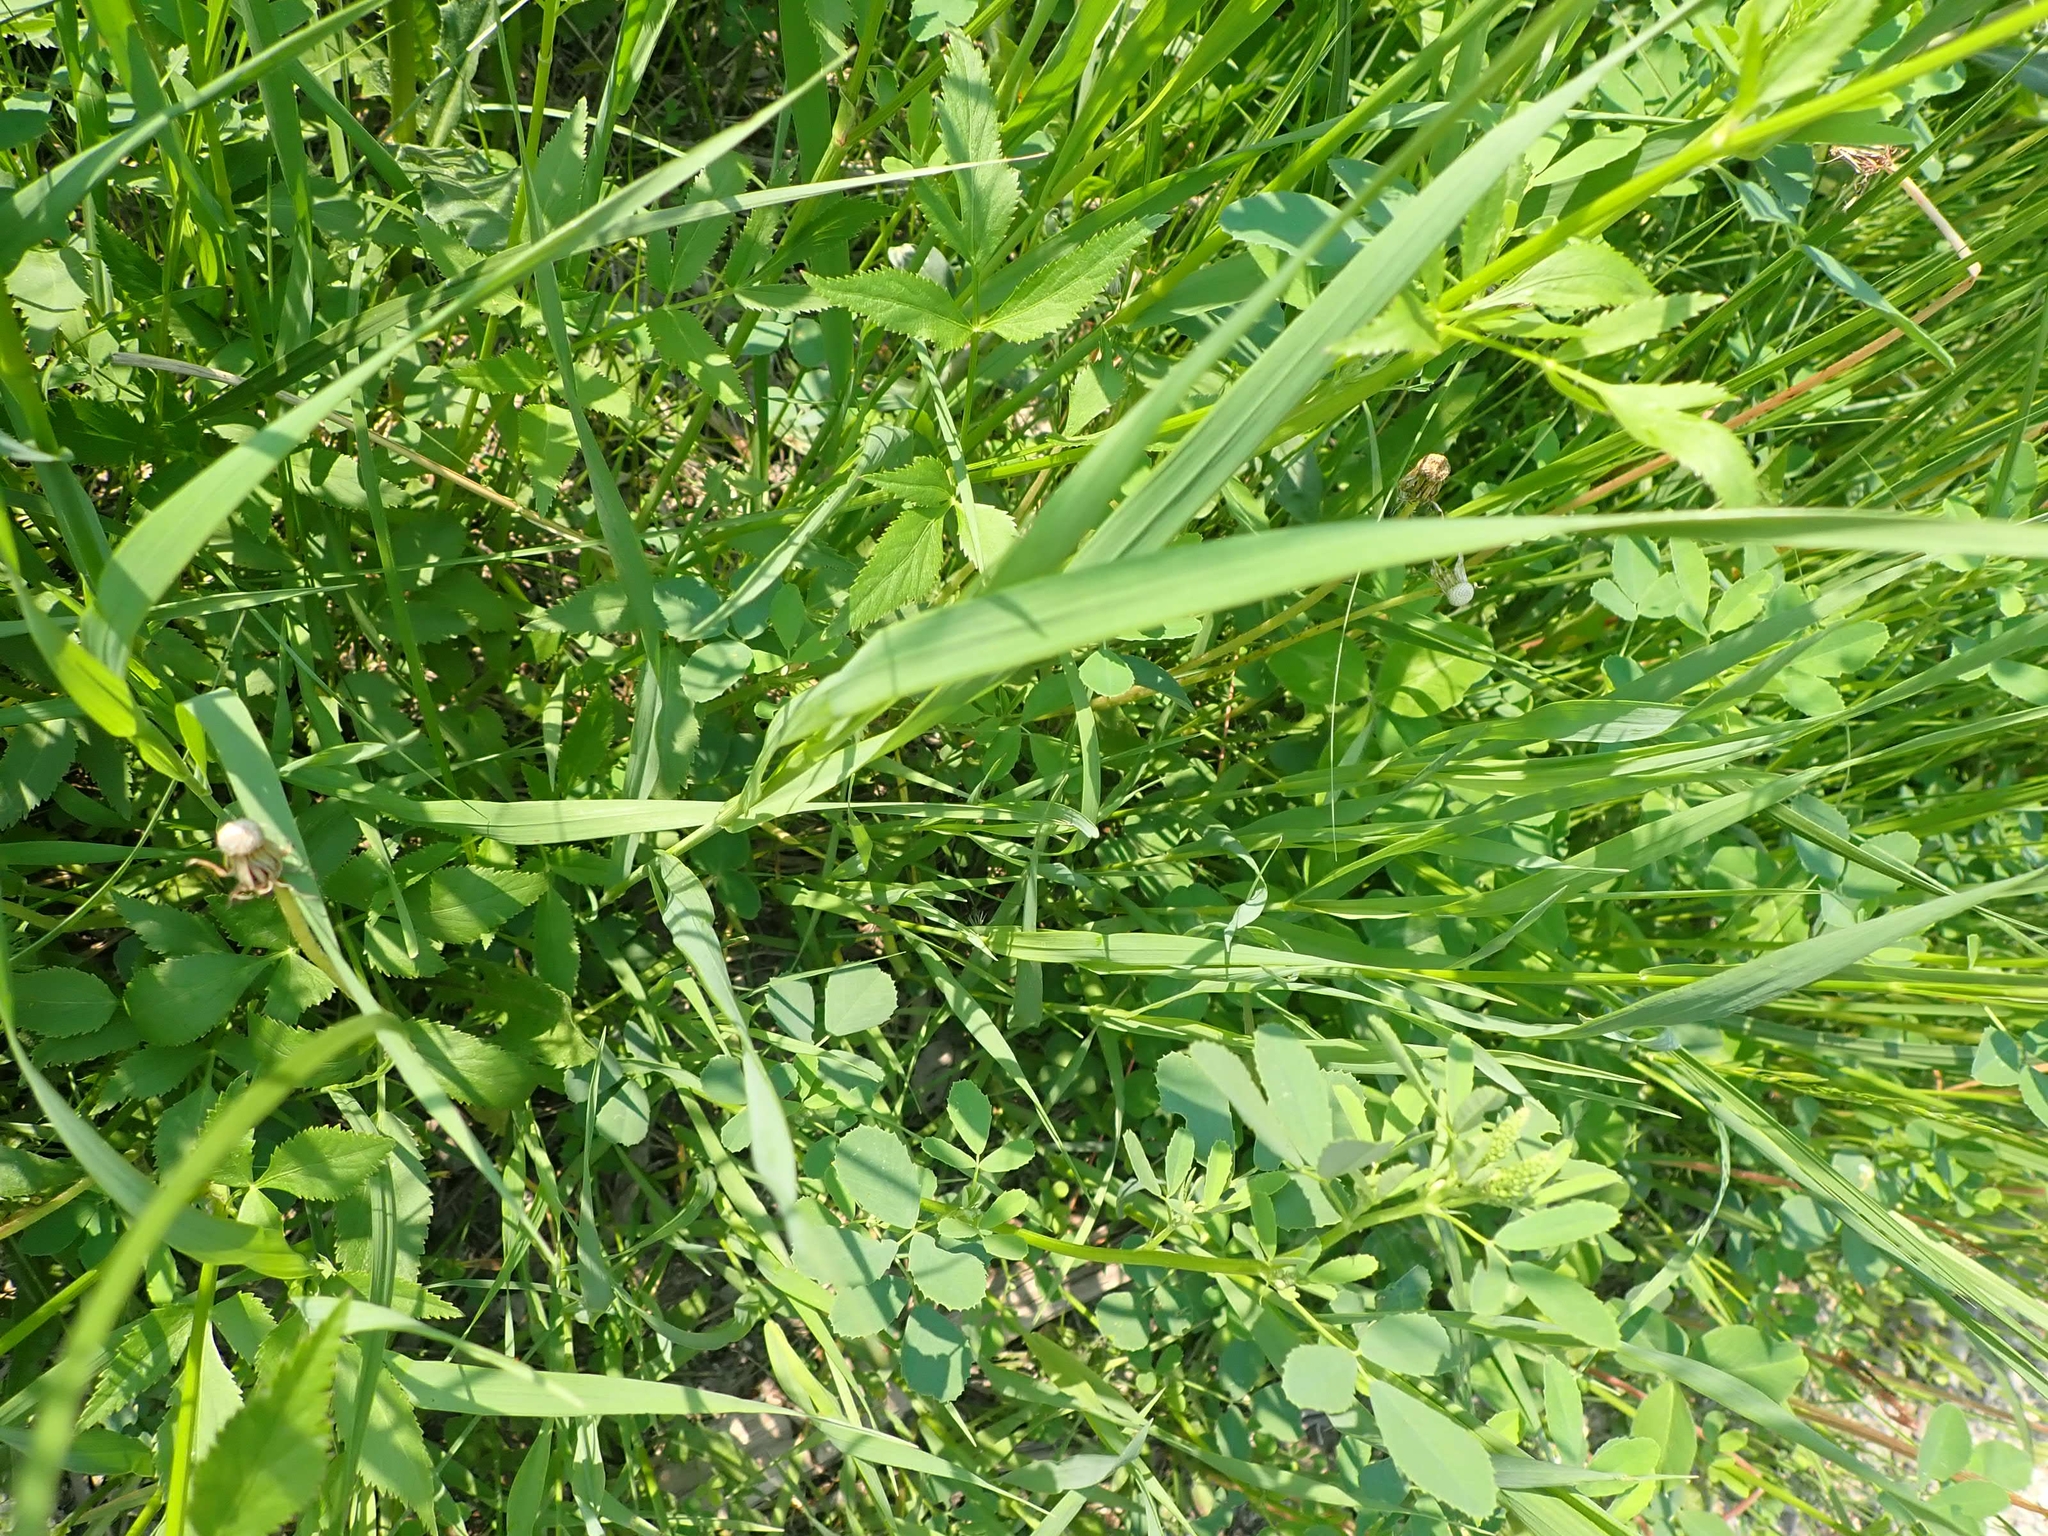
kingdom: Plantae
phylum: Tracheophyta
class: Magnoliopsida
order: Apiales
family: Apiaceae
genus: Zizia
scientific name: Zizia aurea
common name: Golden alexanders
